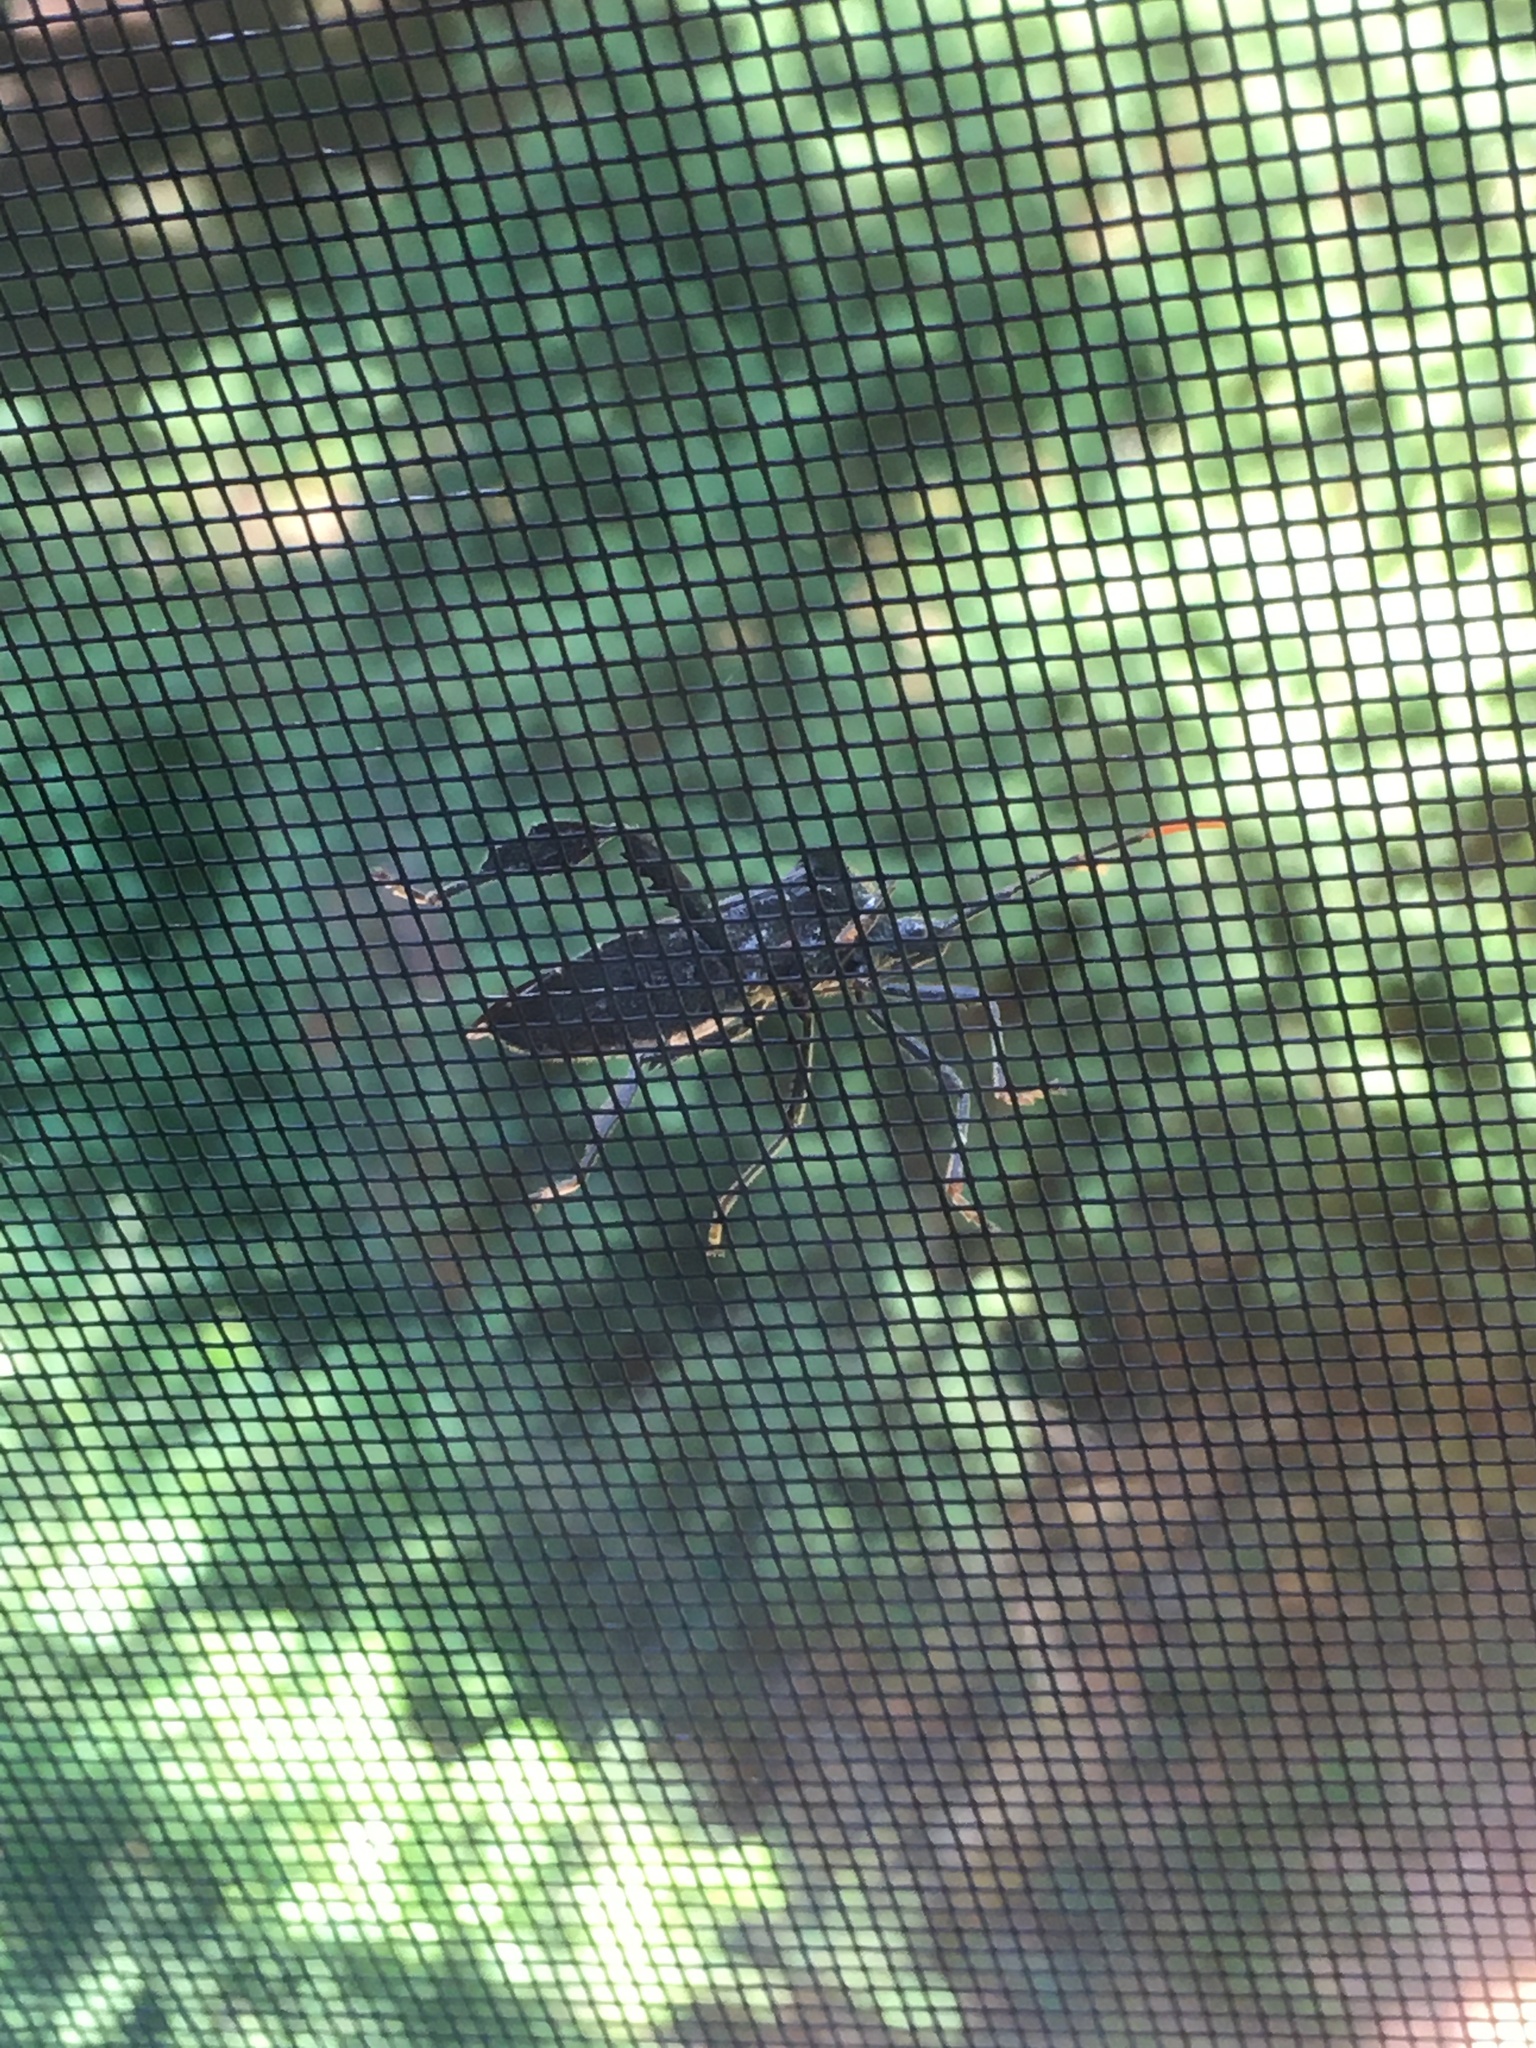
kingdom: Animalia
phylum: Arthropoda
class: Insecta
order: Hemiptera
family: Coreidae
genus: Acanthocephala
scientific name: Acanthocephala terminalis
